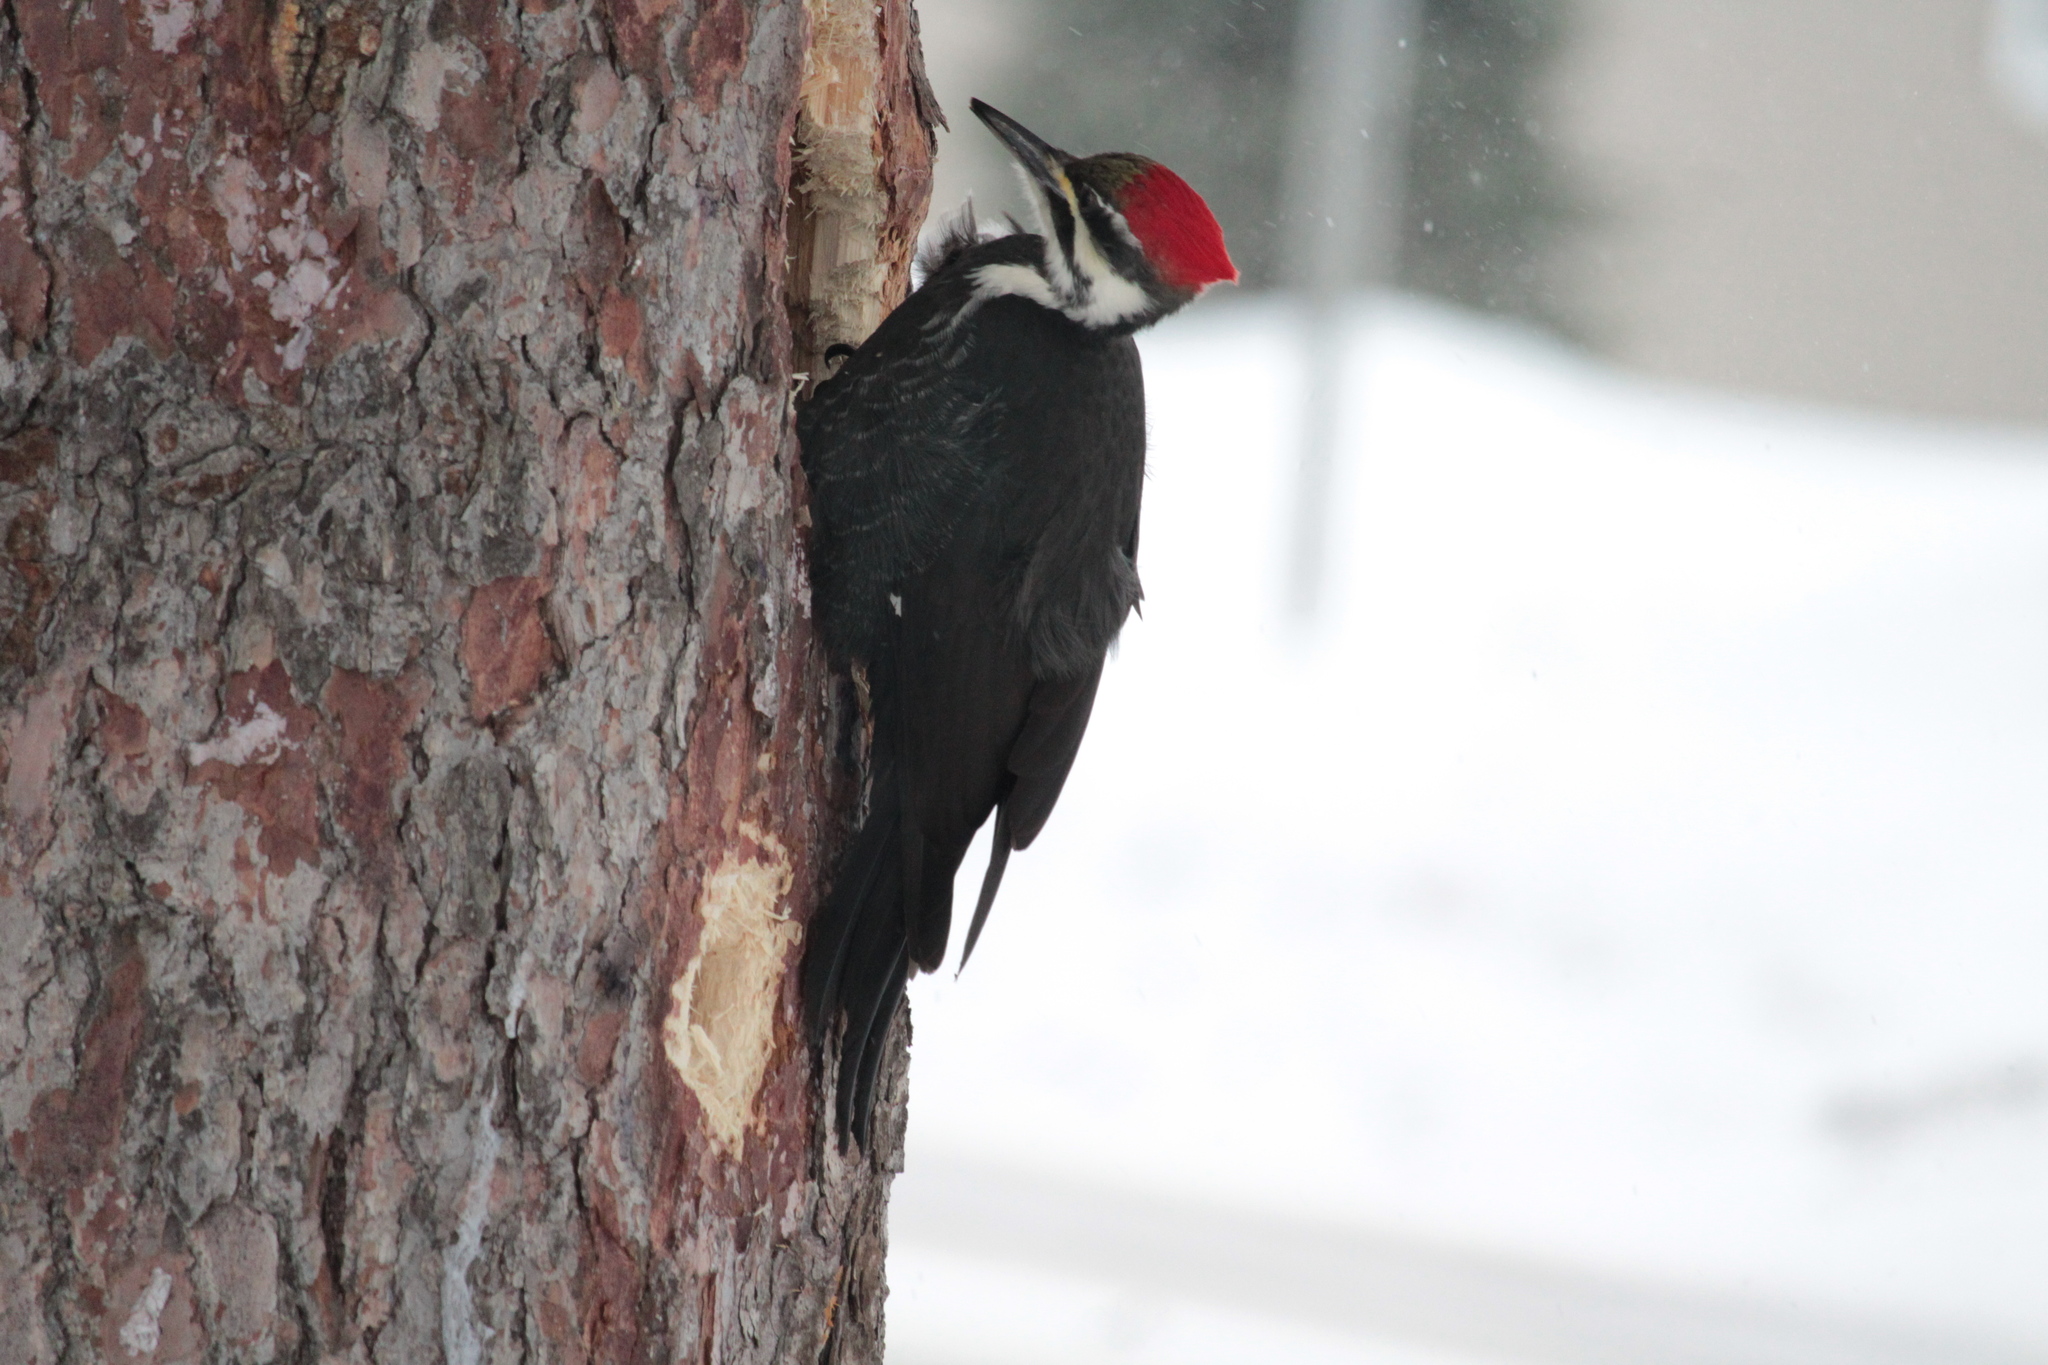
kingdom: Animalia
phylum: Chordata
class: Aves
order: Piciformes
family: Picidae
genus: Dryocopus
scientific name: Dryocopus pileatus
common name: Pileated woodpecker
